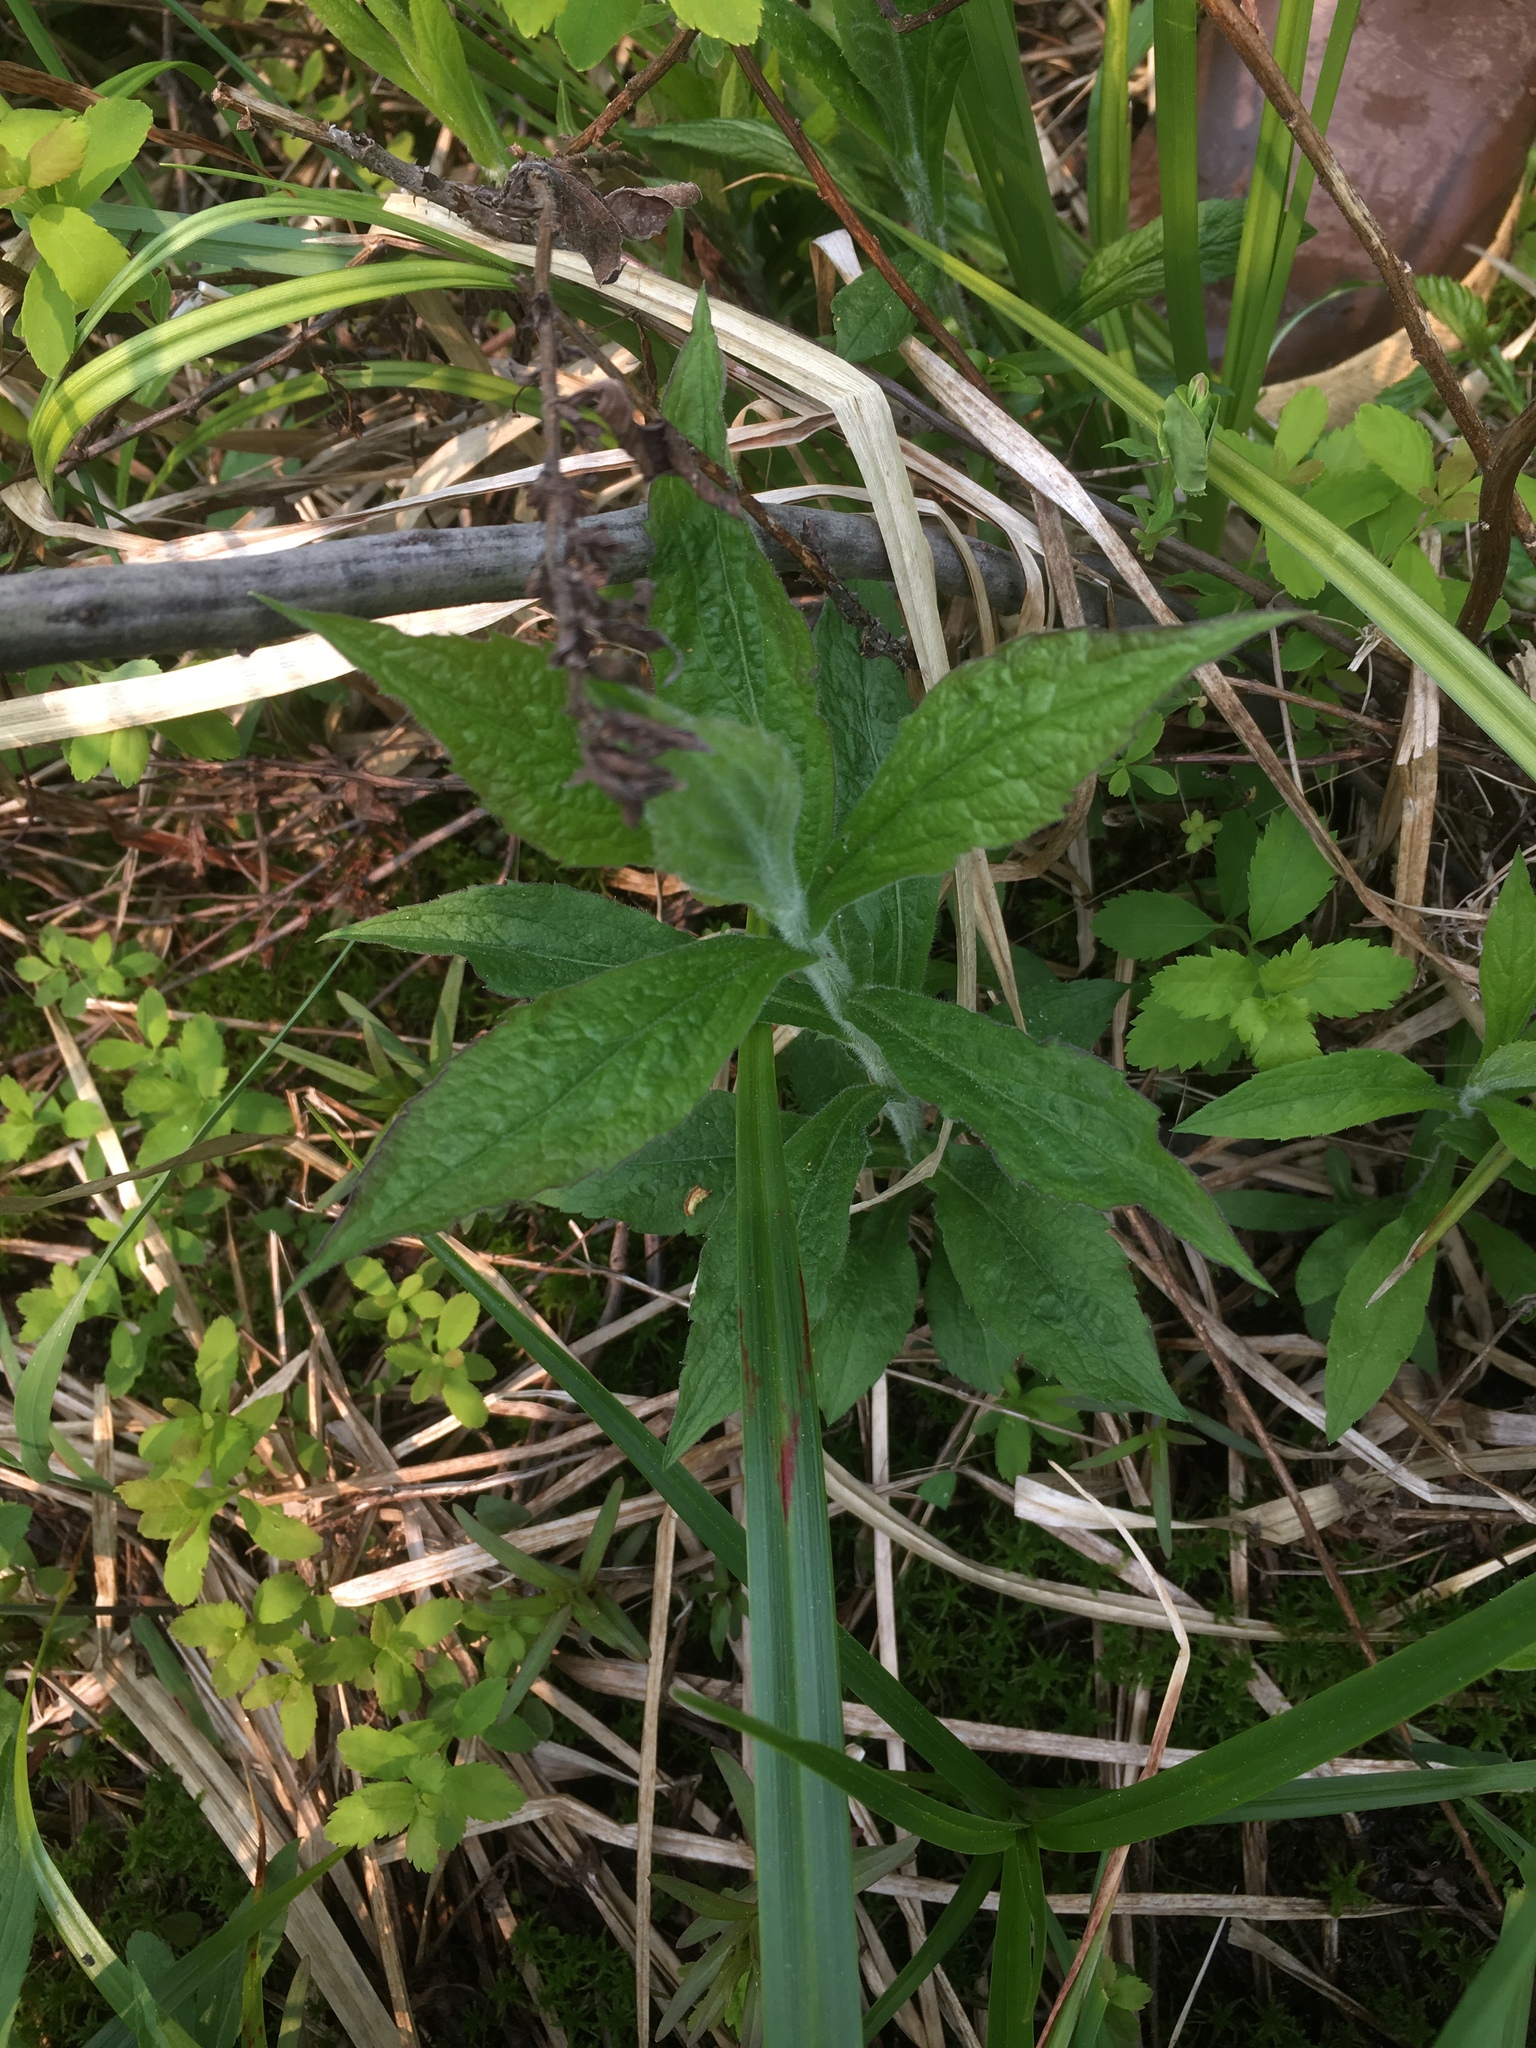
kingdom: Plantae
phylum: Tracheophyta
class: Magnoliopsida
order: Asterales
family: Asteraceae
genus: Solidago
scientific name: Solidago rugosa
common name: Rough-stemmed goldenrod
